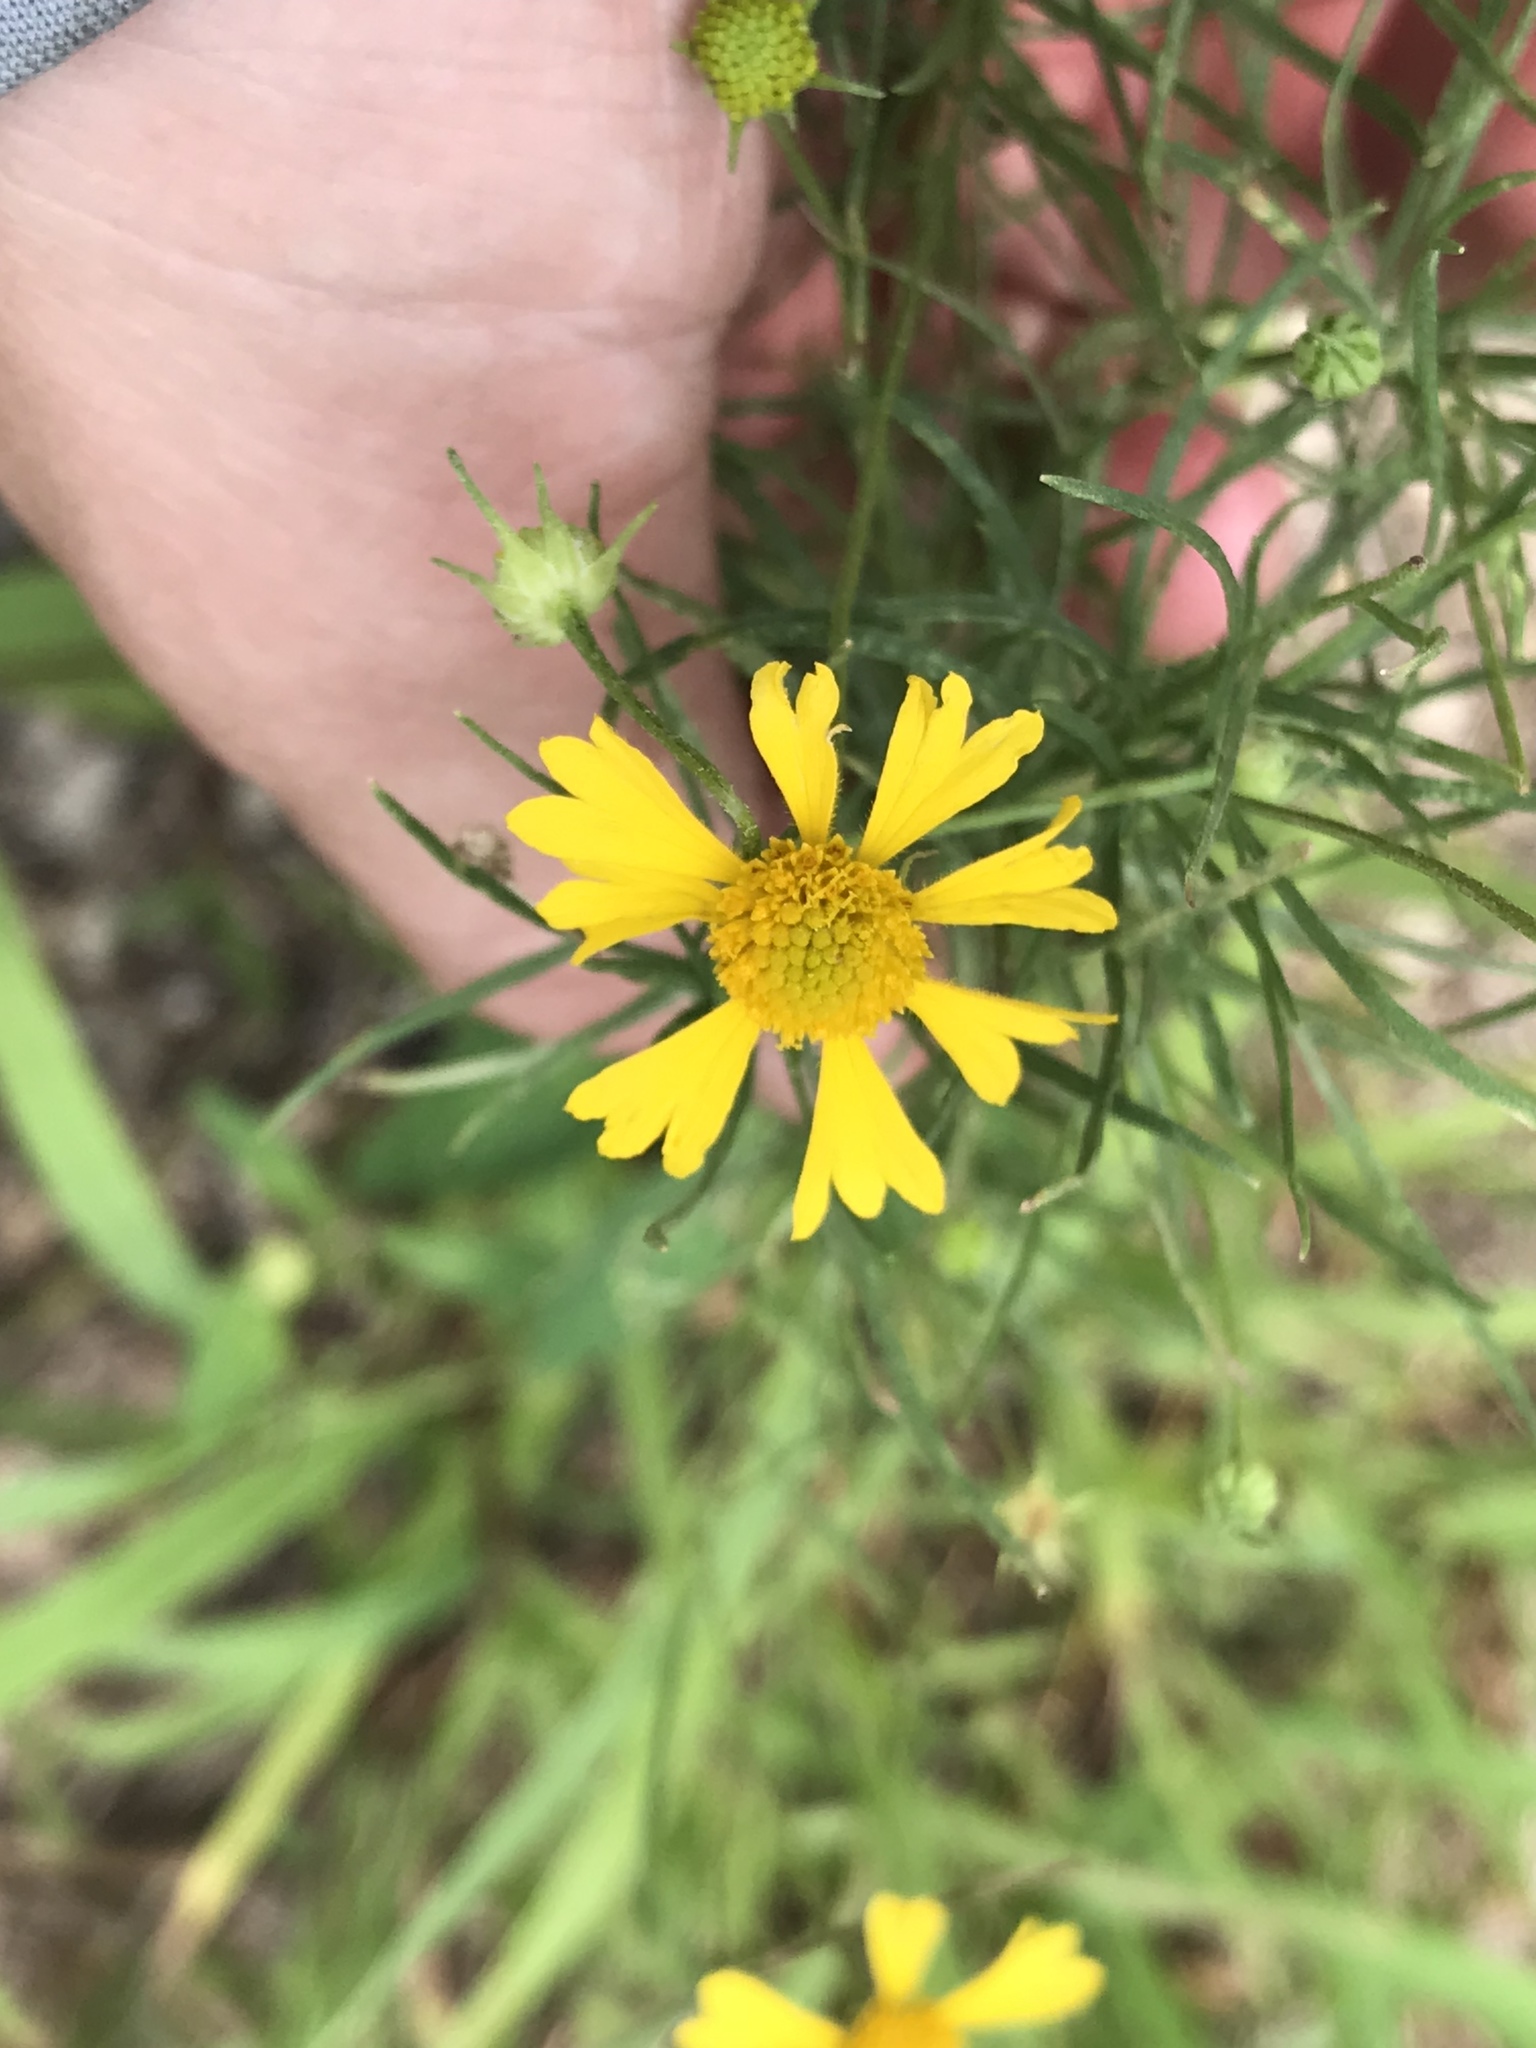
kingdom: Plantae
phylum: Tracheophyta
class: Magnoliopsida
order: Asterales
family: Asteraceae
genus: Helenium
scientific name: Helenium amarum
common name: Bitter sneezeweed
